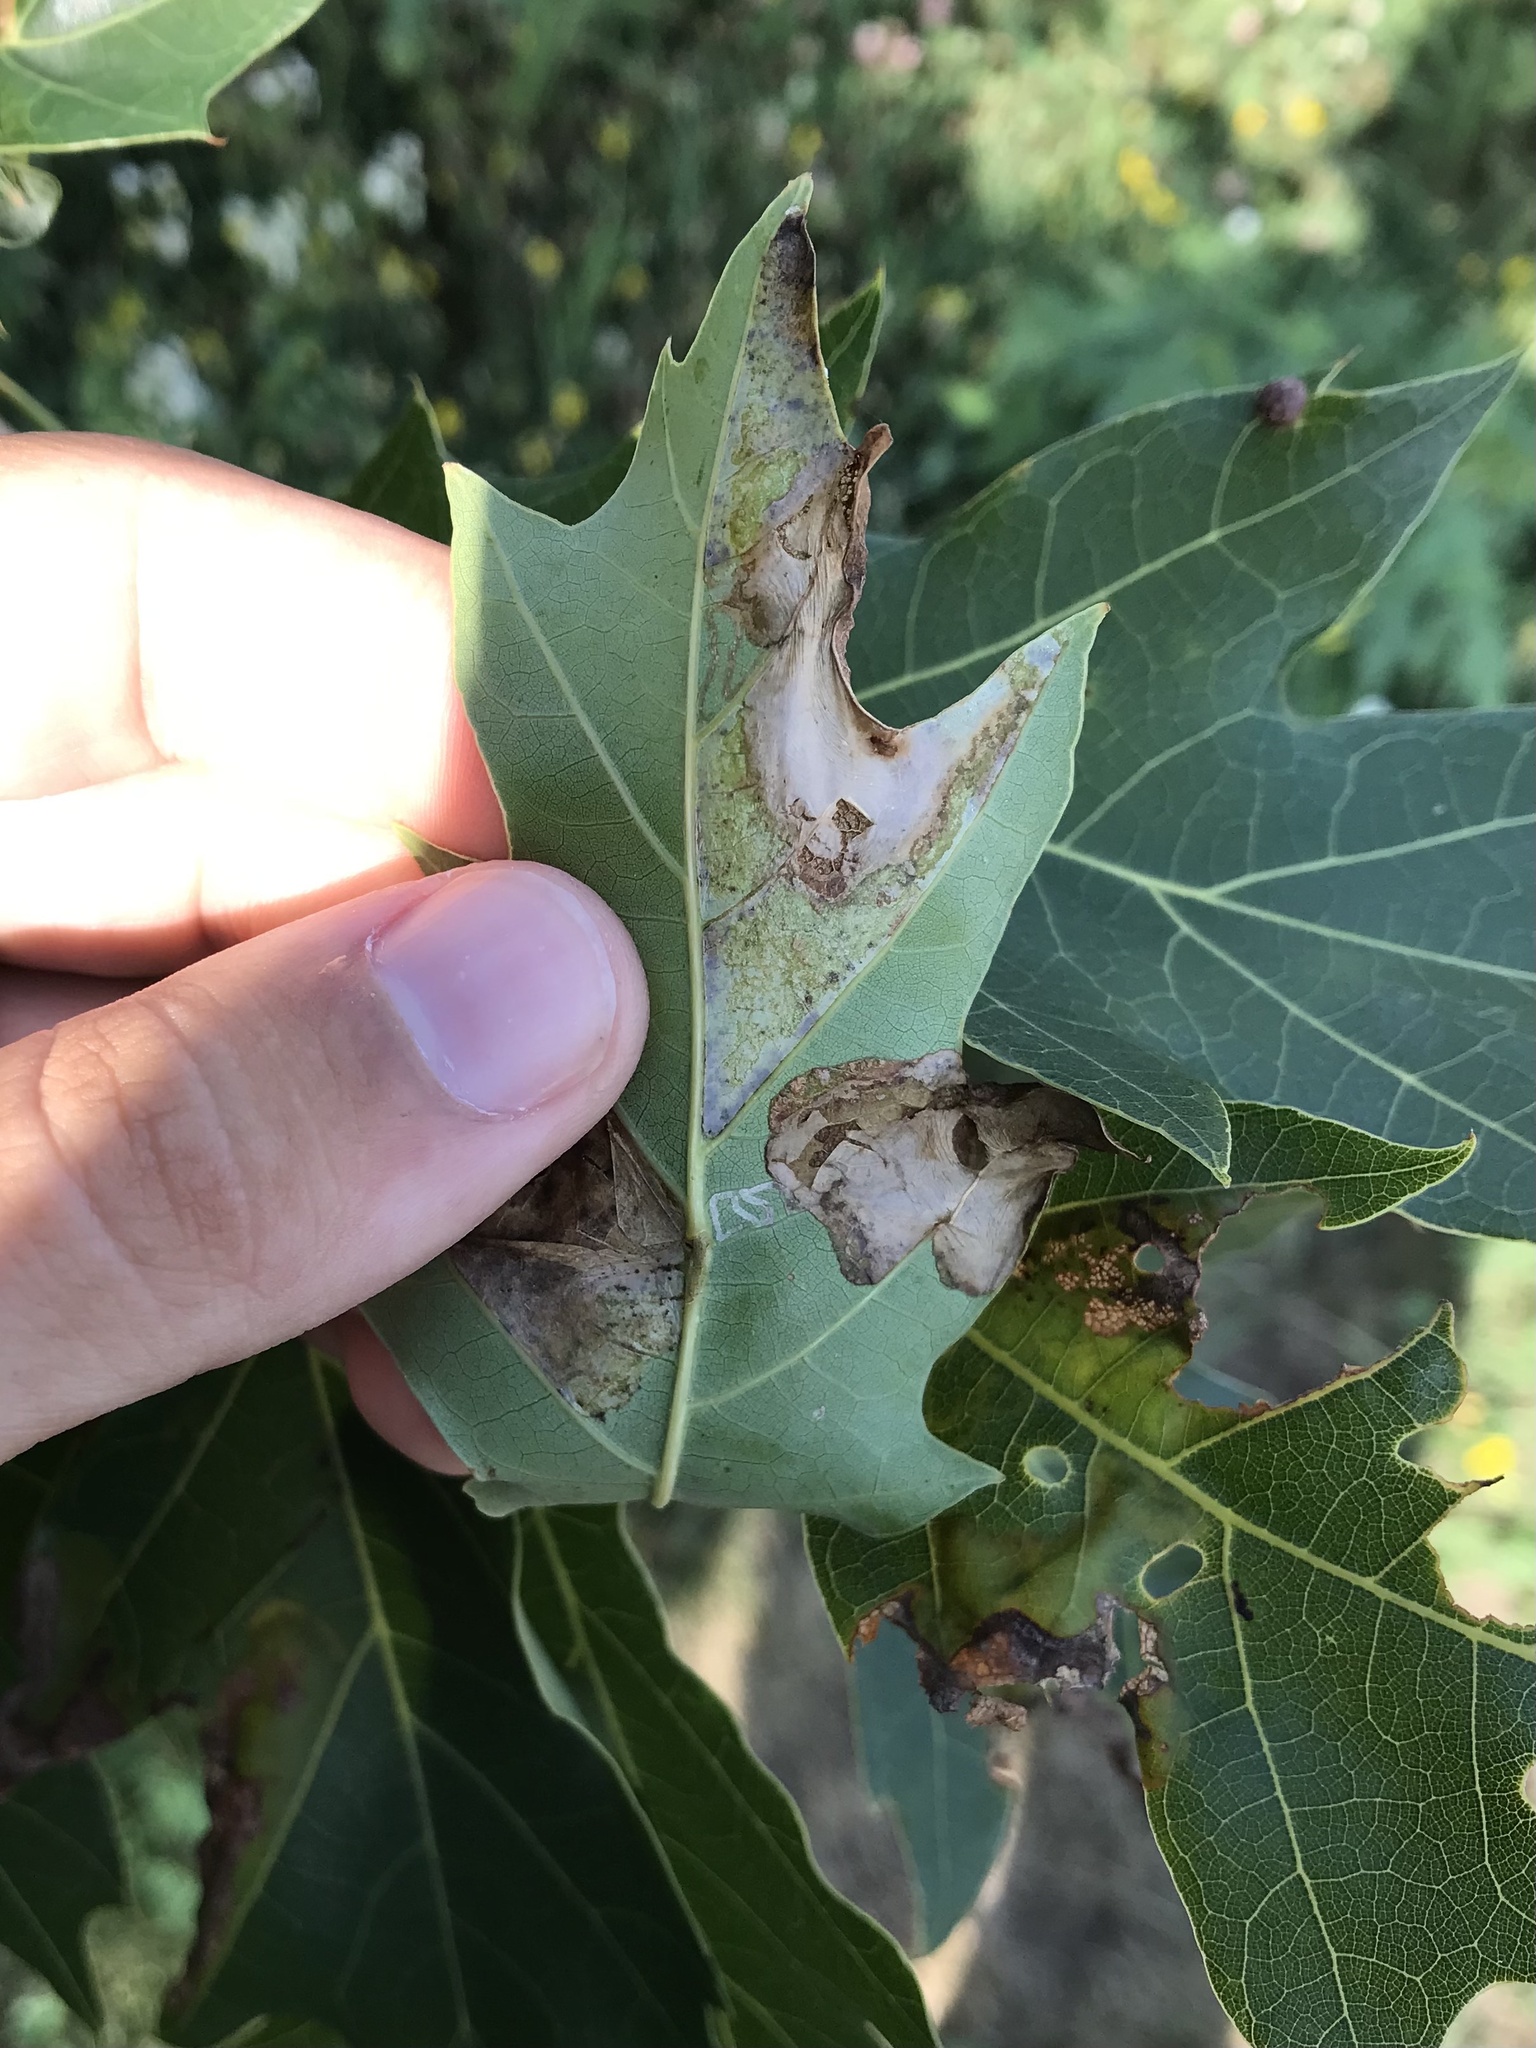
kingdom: Animalia
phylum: Arthropoda
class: Insecta
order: Lepidoptera
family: Gracillariidae
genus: Acrocercops
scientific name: Acrocercops albinatella
